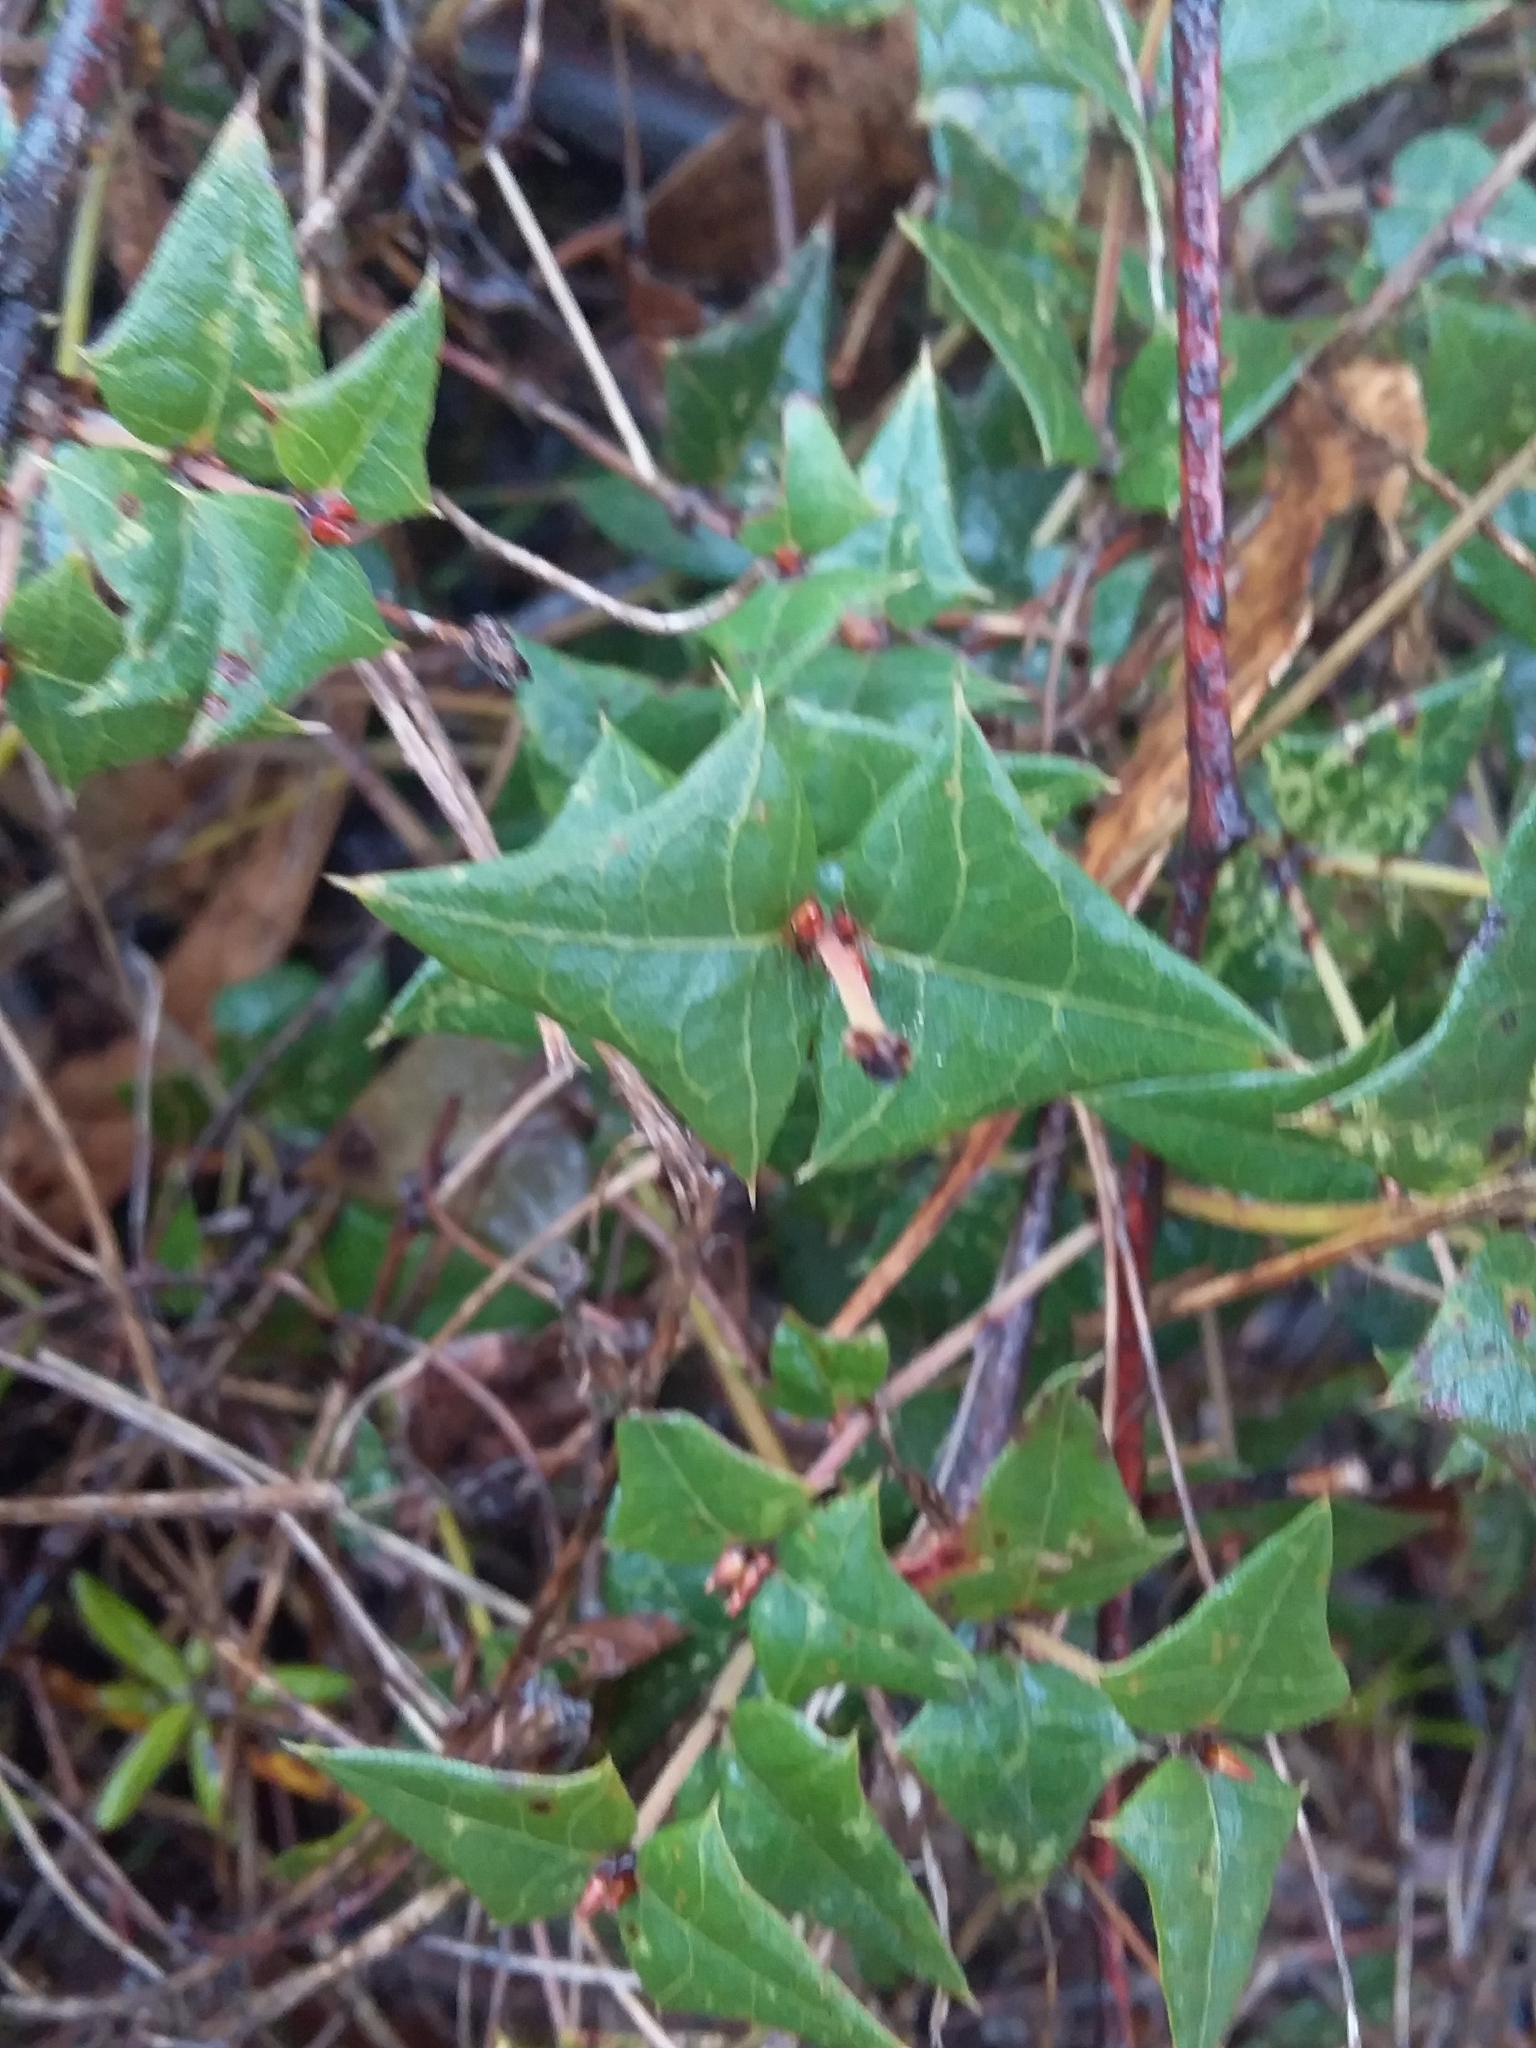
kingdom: Plantae
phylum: Tracheophyta
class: Magnoliopsida
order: Fabales
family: Fabaceae
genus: Platylobium
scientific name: Platylobium obtusangulum
